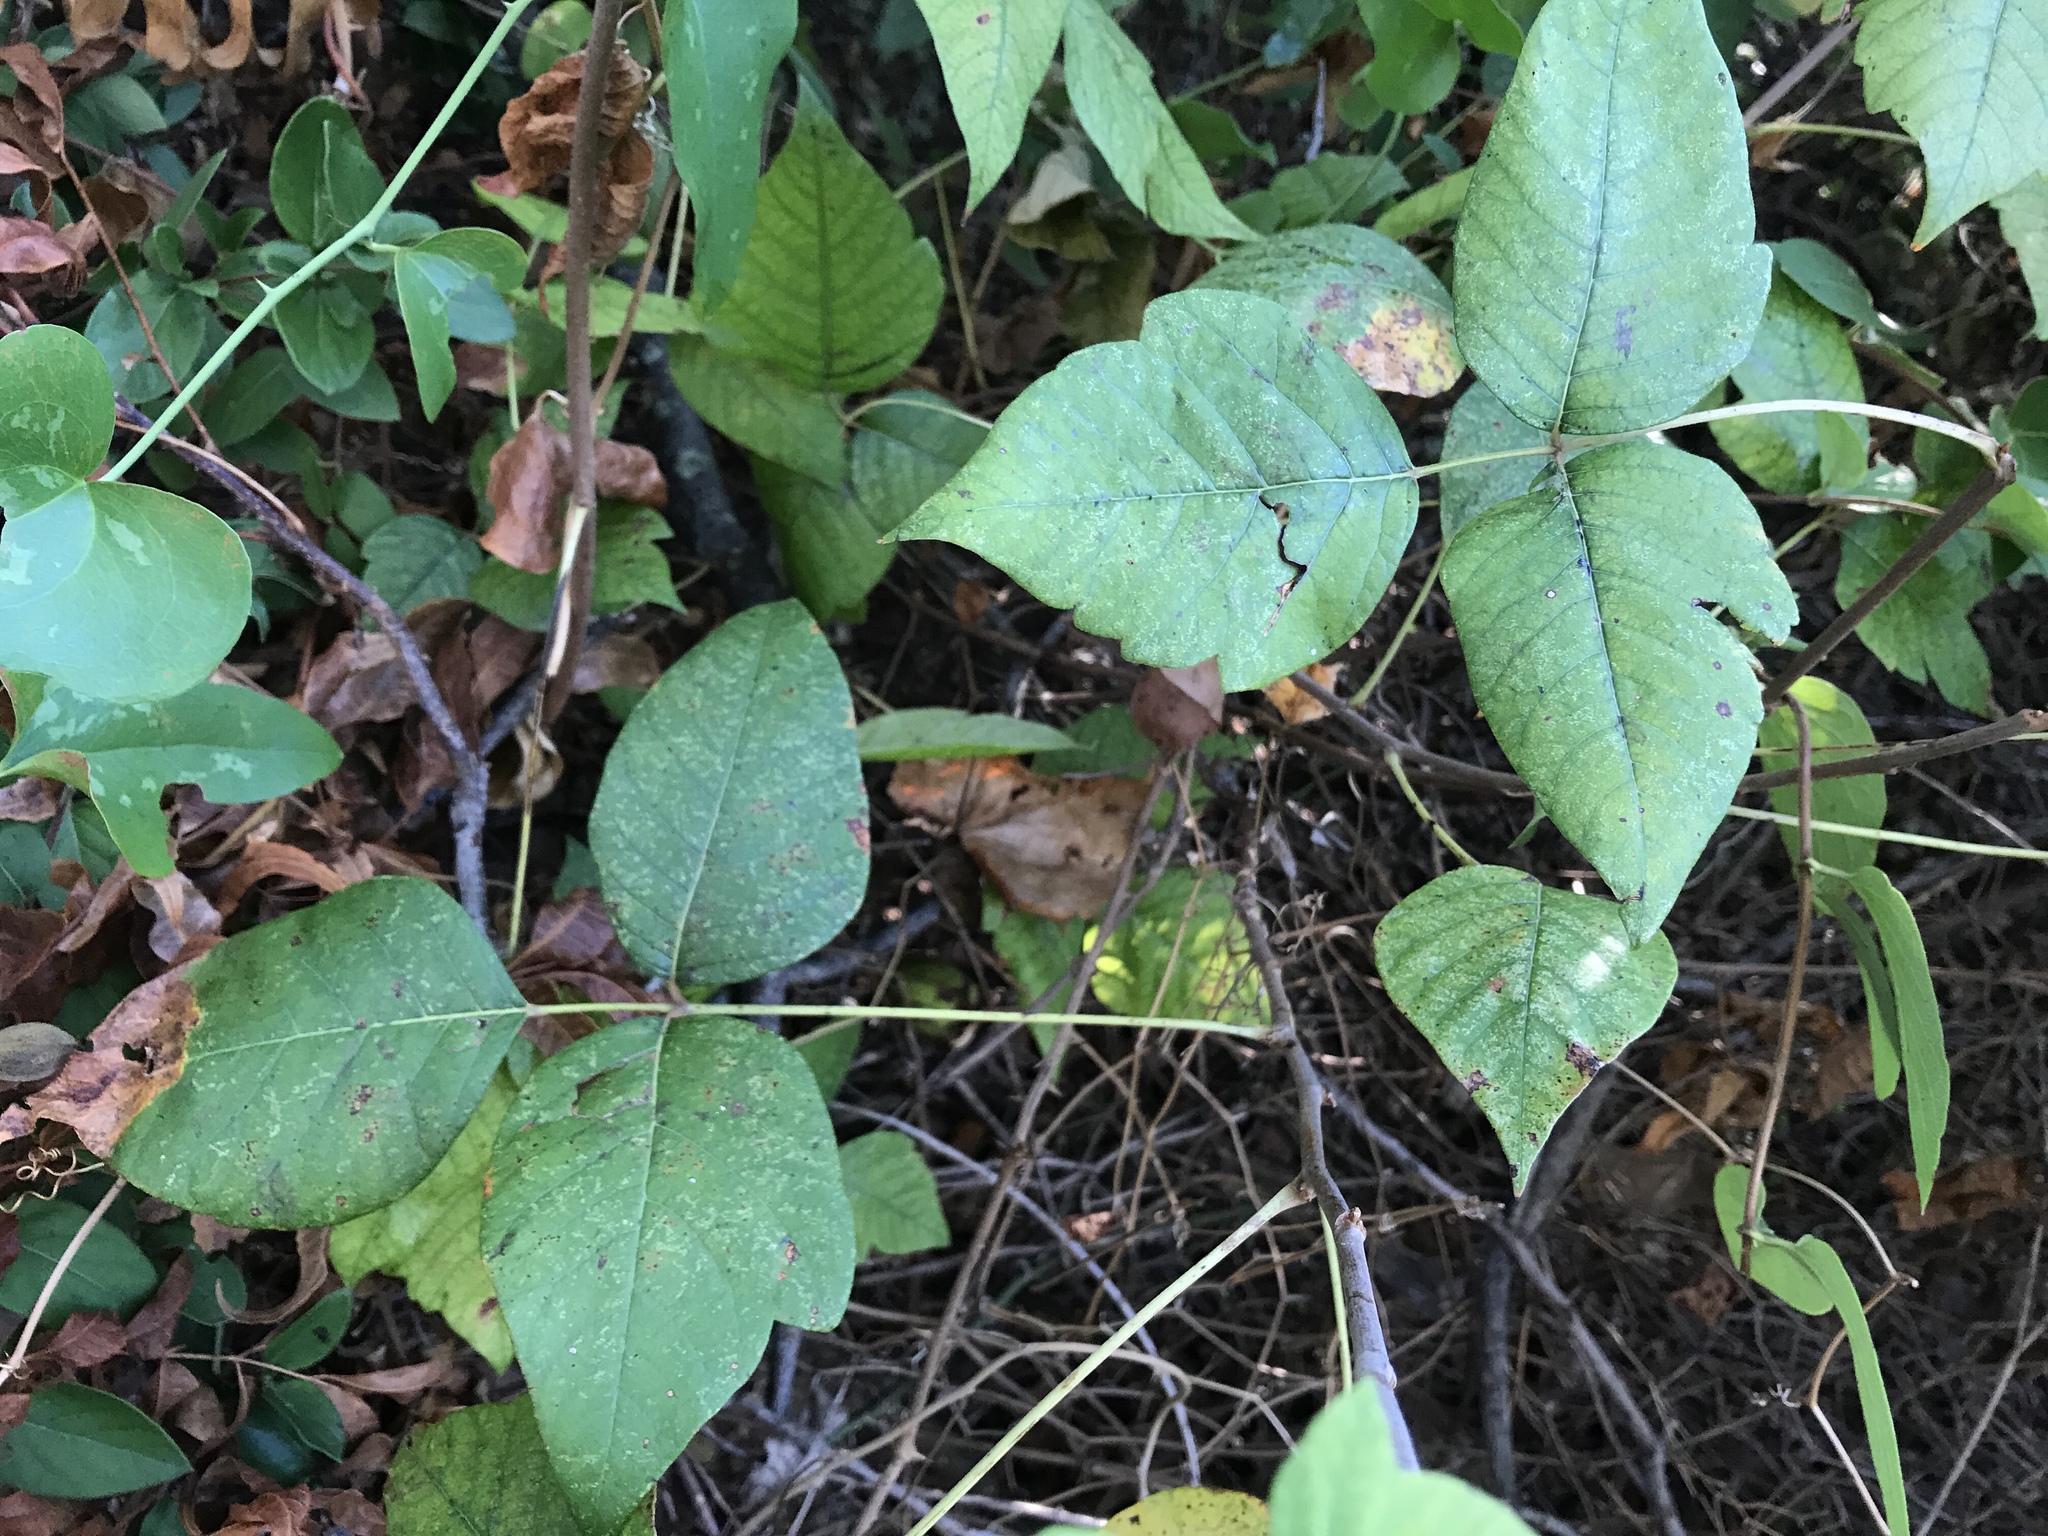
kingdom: Plantae
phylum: Tracheophyta
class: Magnoliopsida
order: Sapindales
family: Anacardiaceae
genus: Toxicodendron
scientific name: Toxicodendron radicans
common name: Poison ivy
